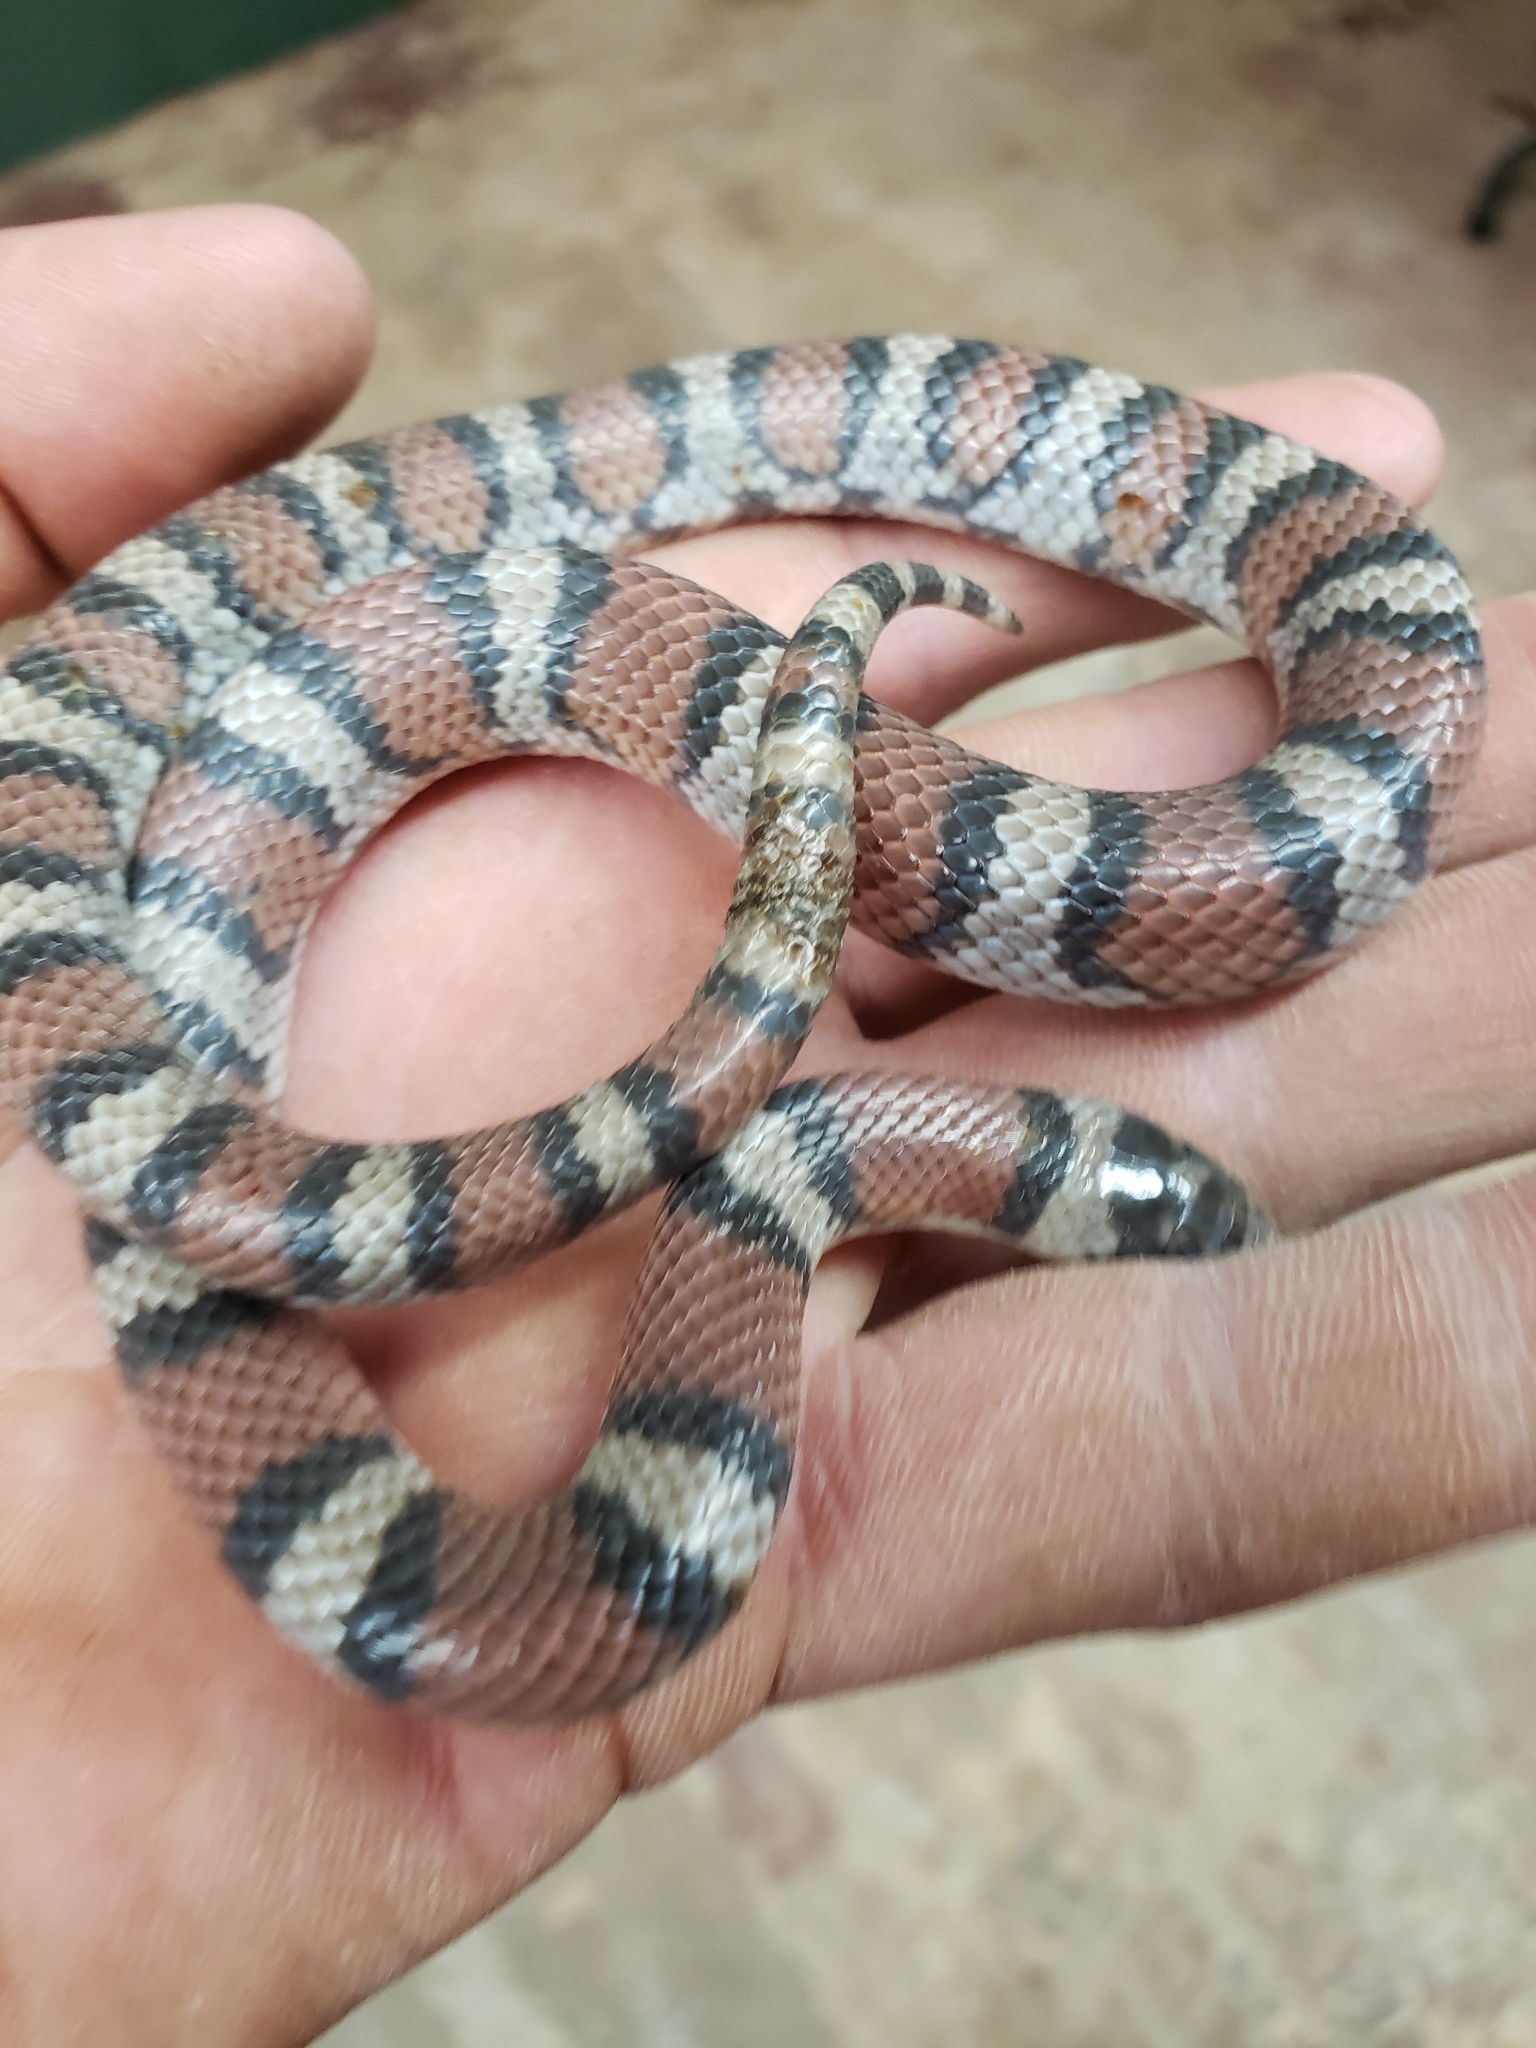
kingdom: Animalia
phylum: Chordata
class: Squamata
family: Colubridae
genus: Lampropeltis
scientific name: Lampropeltis gentilis
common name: Central plains milksnake
